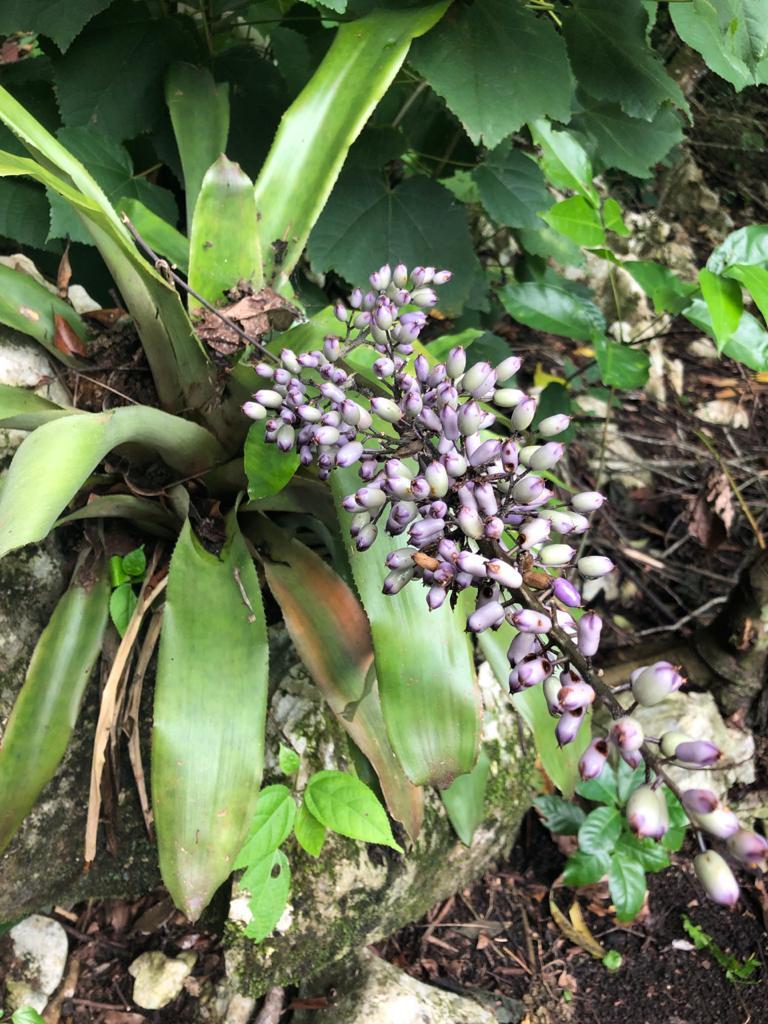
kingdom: Plantae
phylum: Tracheophyta
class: Liliopsida
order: Poales
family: Bromeliaceae
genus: Aechmea
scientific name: Aechmea mexicana
